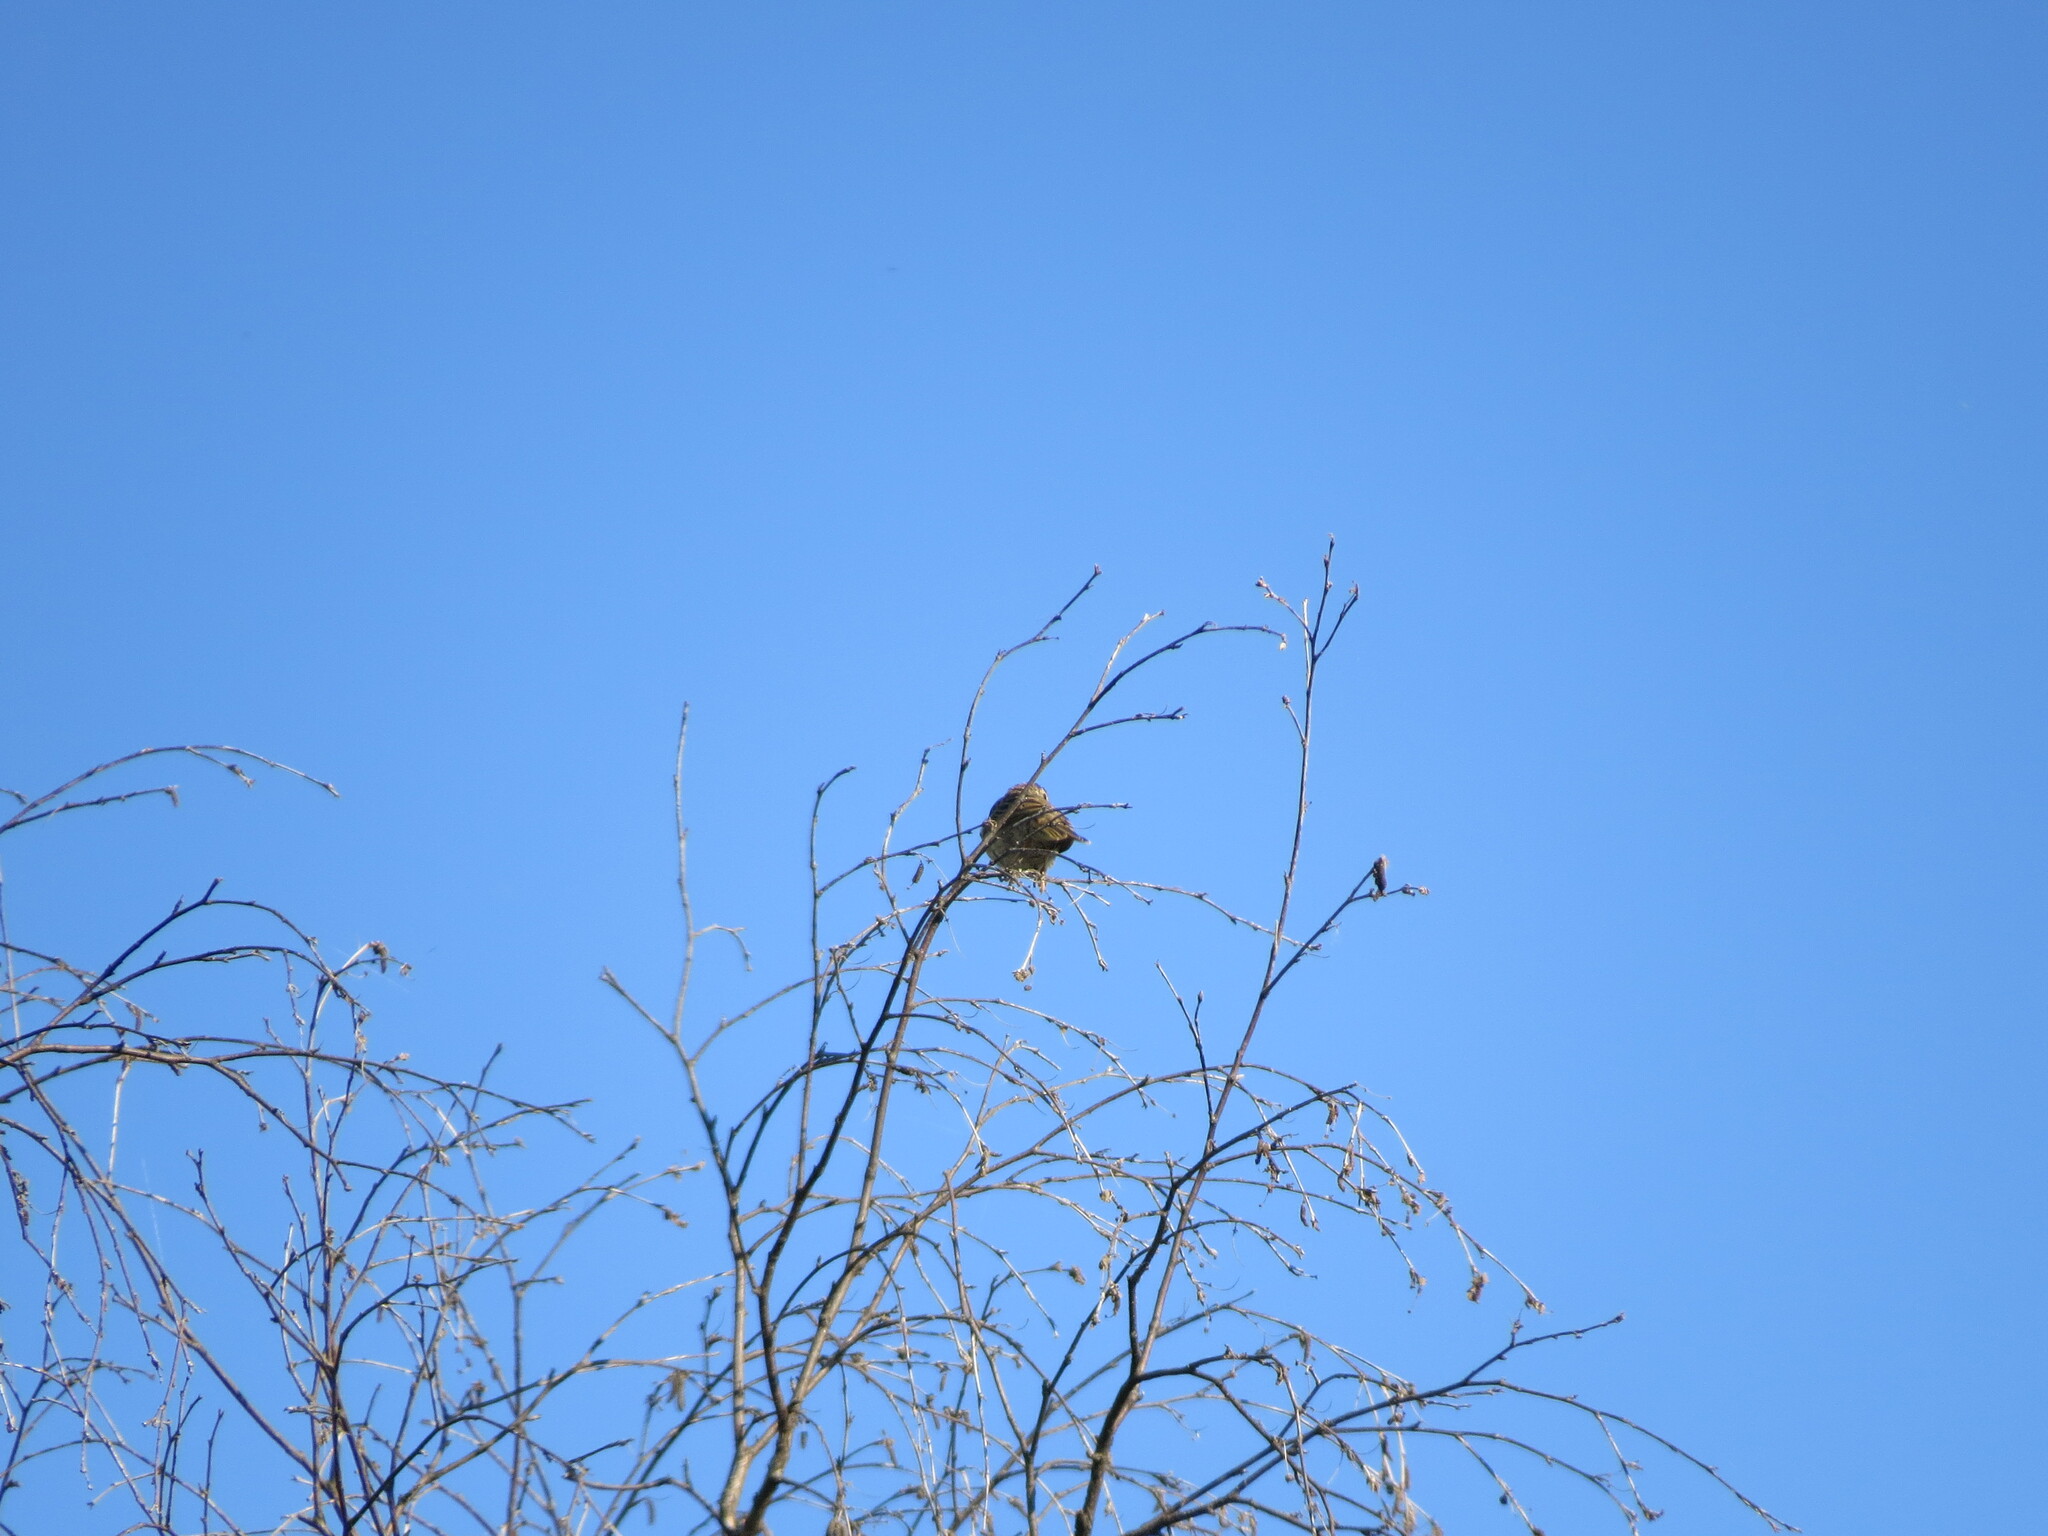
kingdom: Animalia
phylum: Chordata
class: Aves
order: Passeriformes
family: Motacillidae
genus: Anthus
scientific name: Anthus trivialis
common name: Tree pipit
